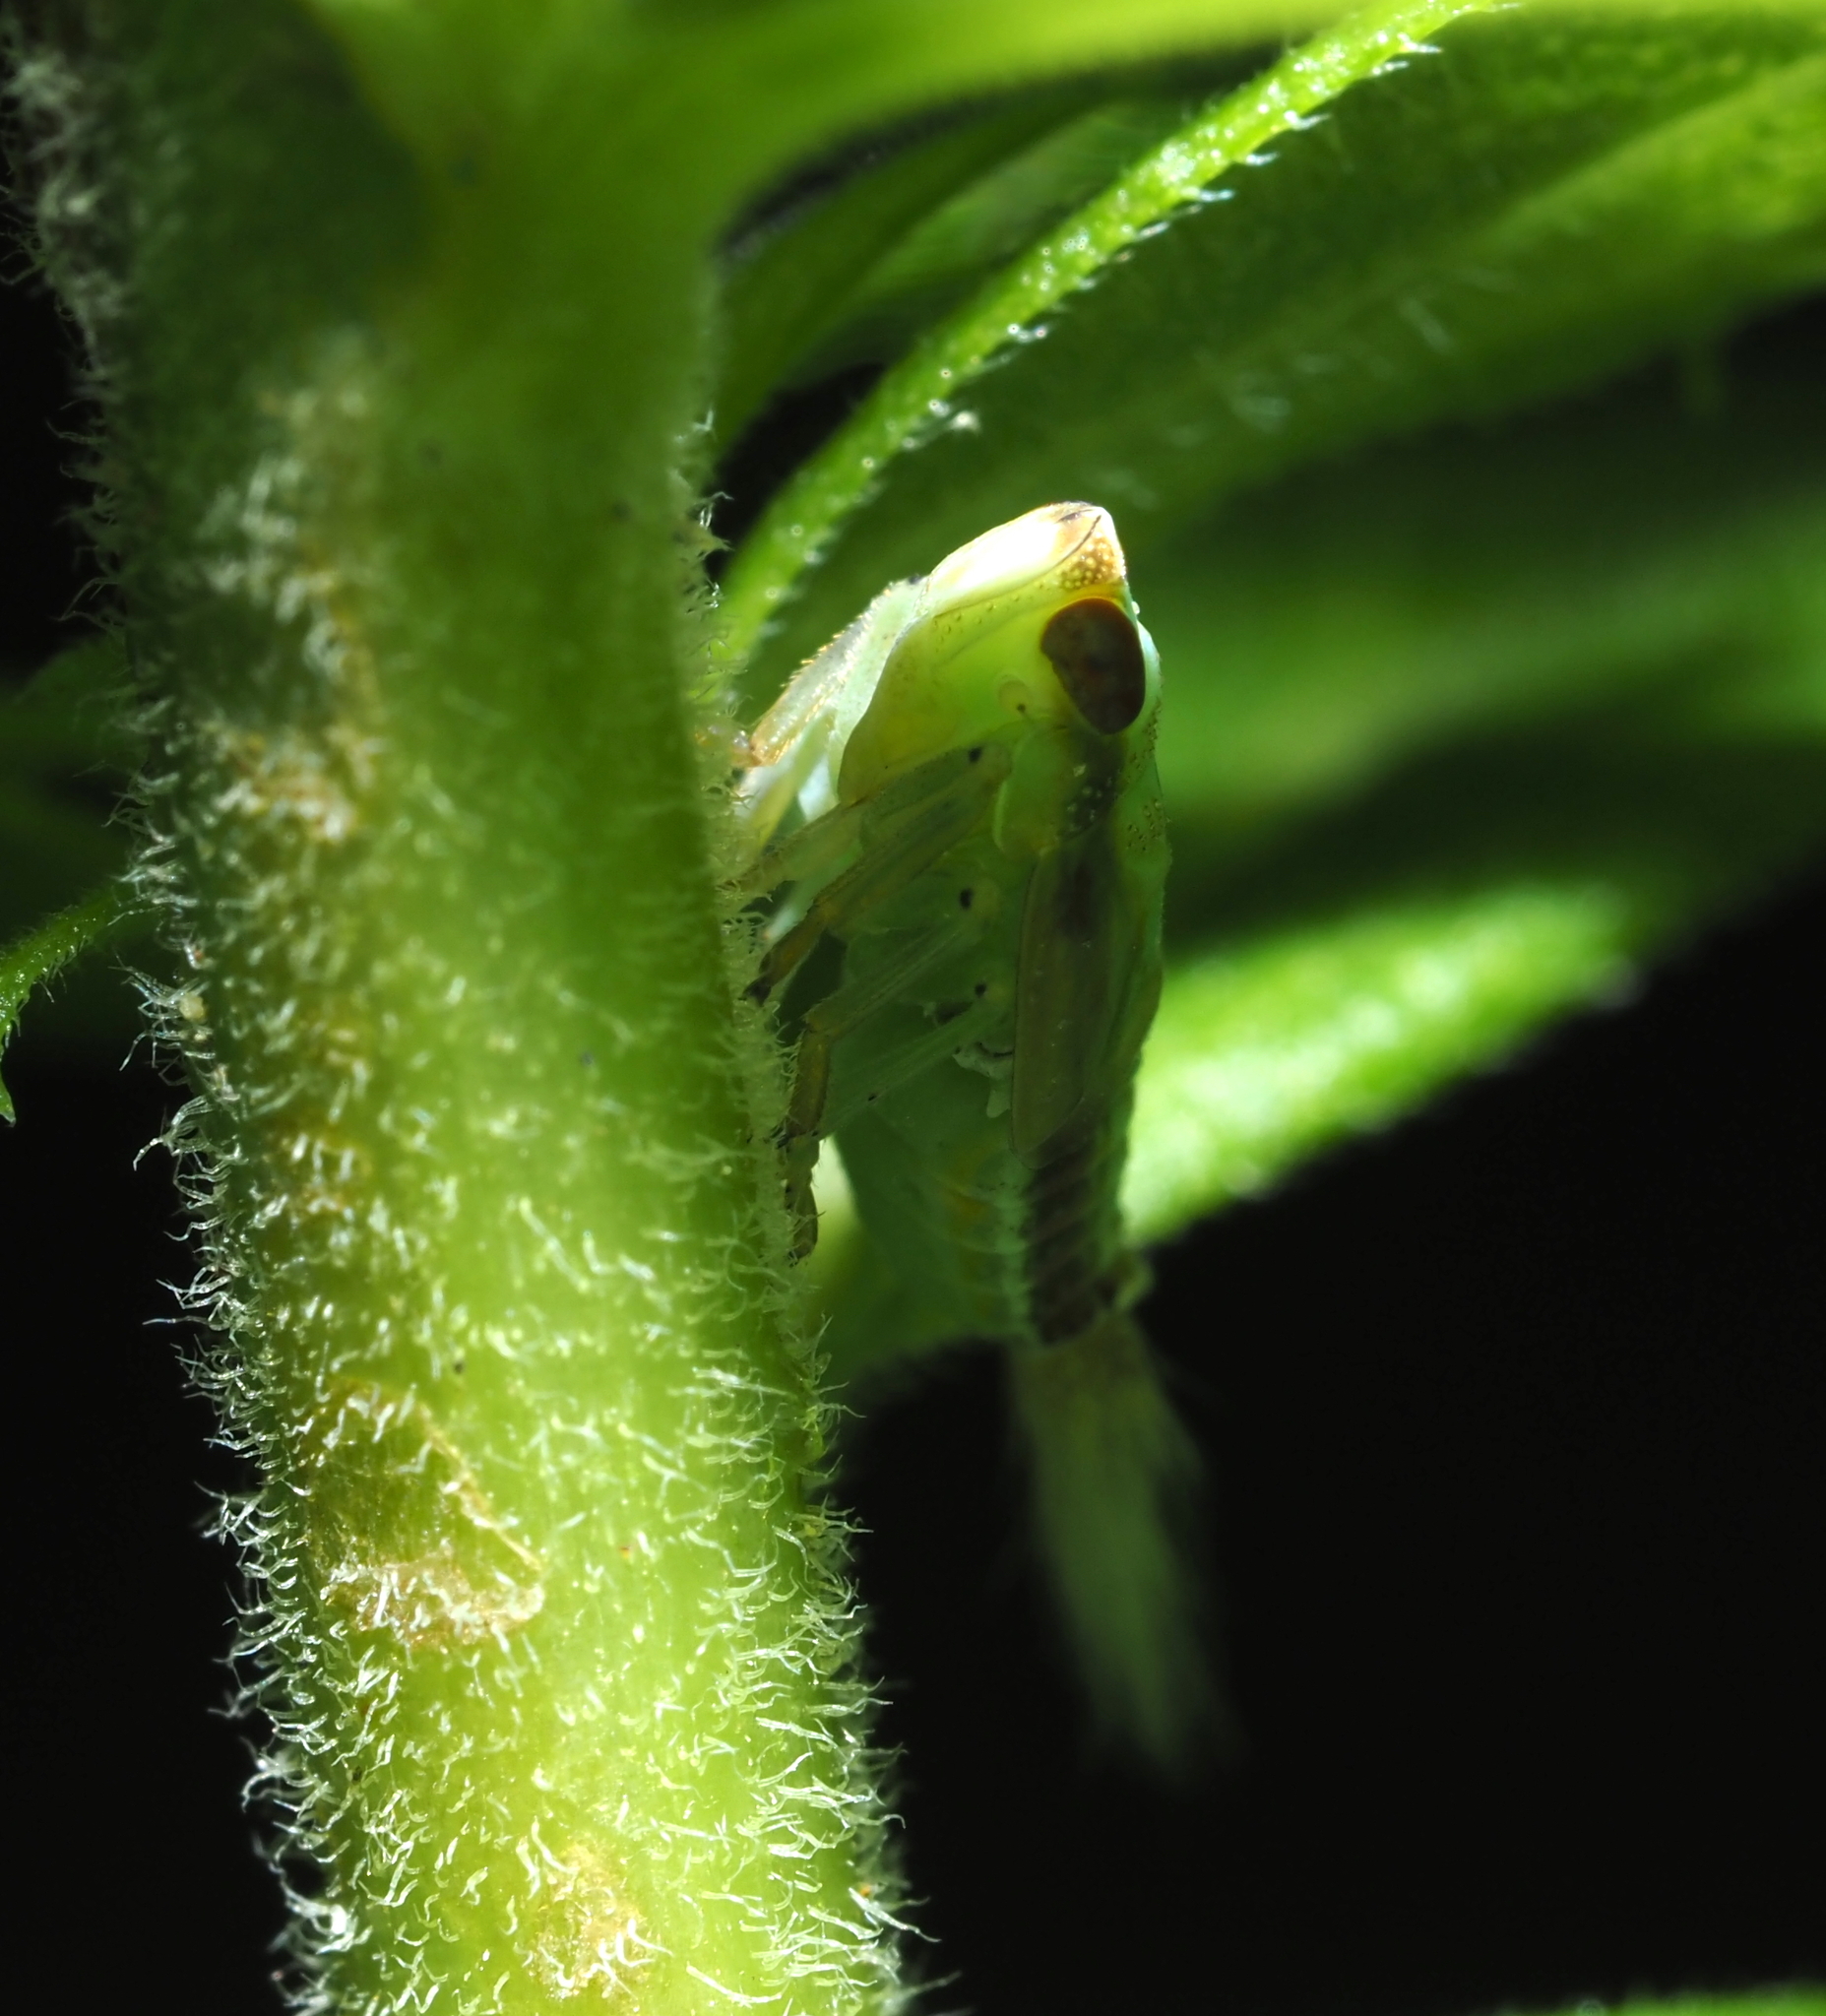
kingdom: Animalia
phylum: Arthropoda
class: Insecta
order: Hemiptera
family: Issidae
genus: Thionia
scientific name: Thionia bullata
